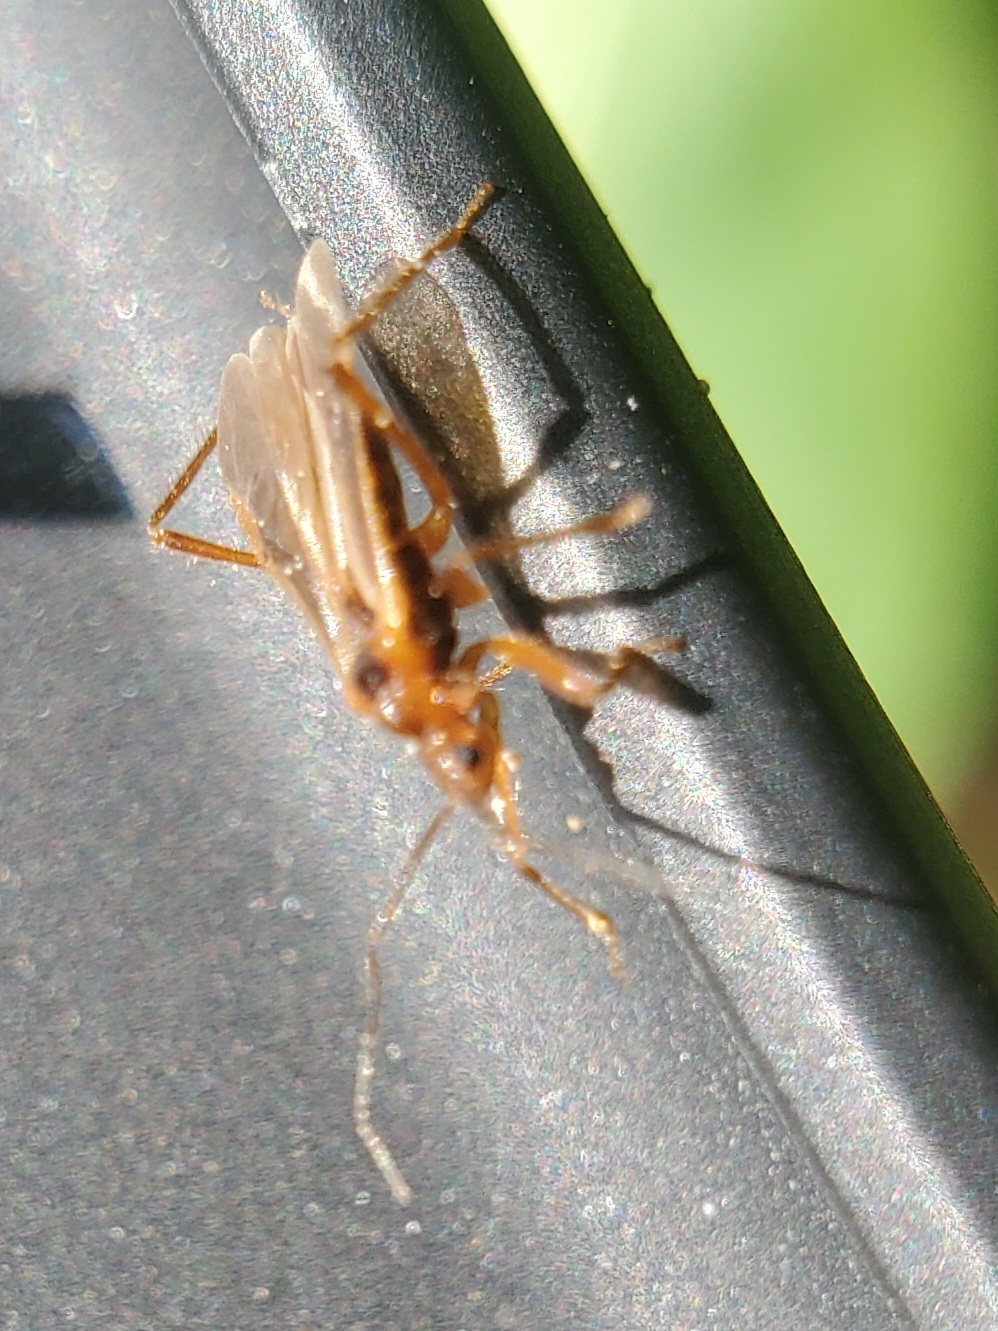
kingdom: Animalia
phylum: Arthropoda
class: Insecta
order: Hemiptera
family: Reduviidae
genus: Oncerotrachelus
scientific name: Oncerotrachelus acuminatus
